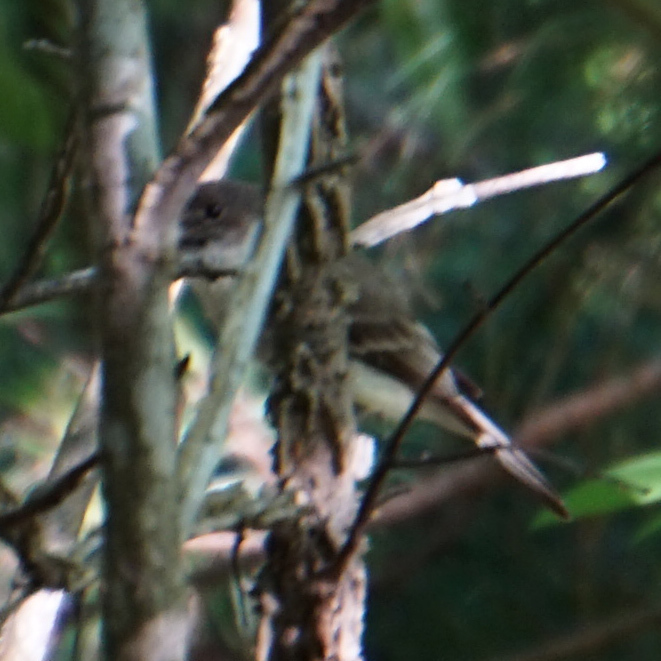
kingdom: Animalia
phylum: Chordata
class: Aves
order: Passeriformes
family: Tyrannidae
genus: Sayornis
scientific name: Sayornis phoebe
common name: Eastern phoebe
